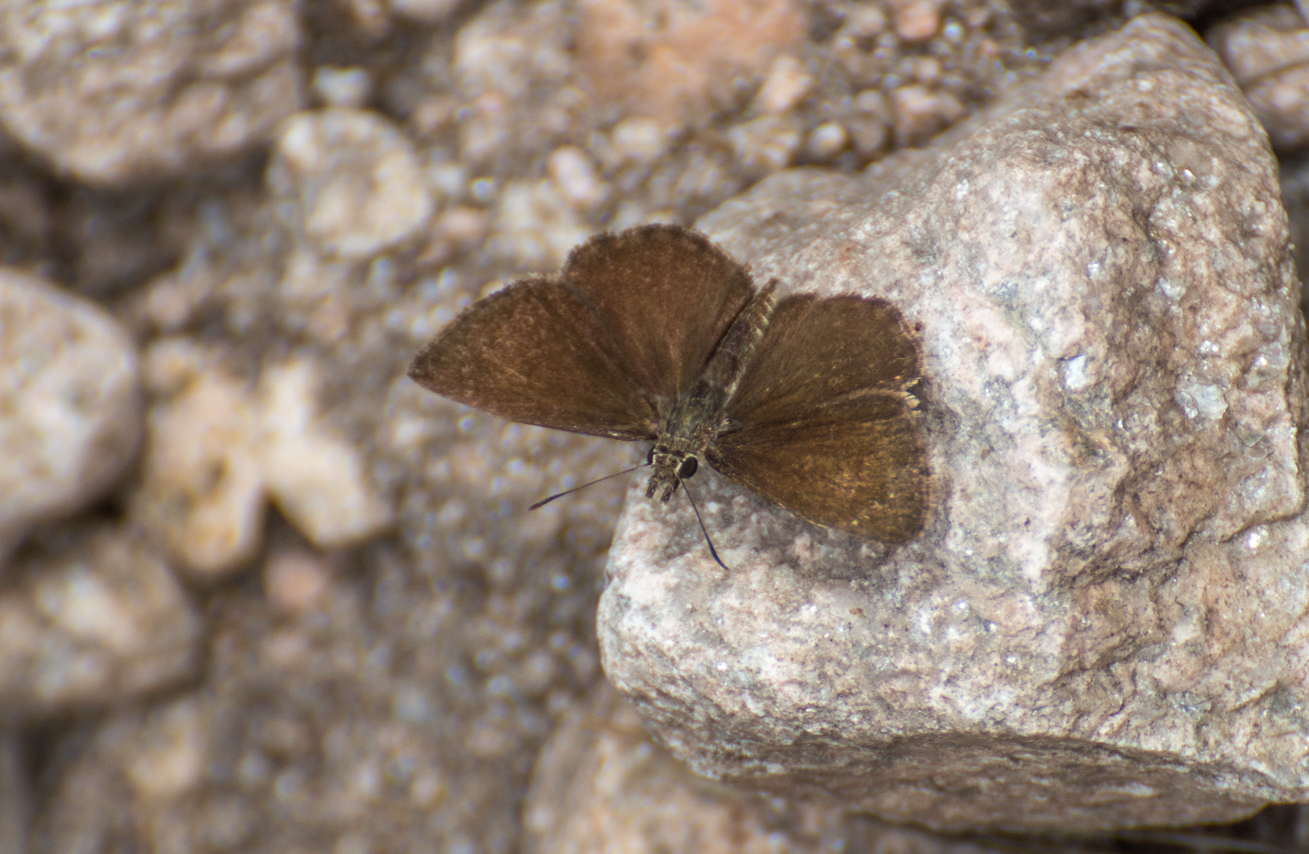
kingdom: Animalia
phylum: Arthropoda
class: Insecta
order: Lepidoptera
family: Hesperiidae
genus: Zopyrion
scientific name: Zopyrion evenor
